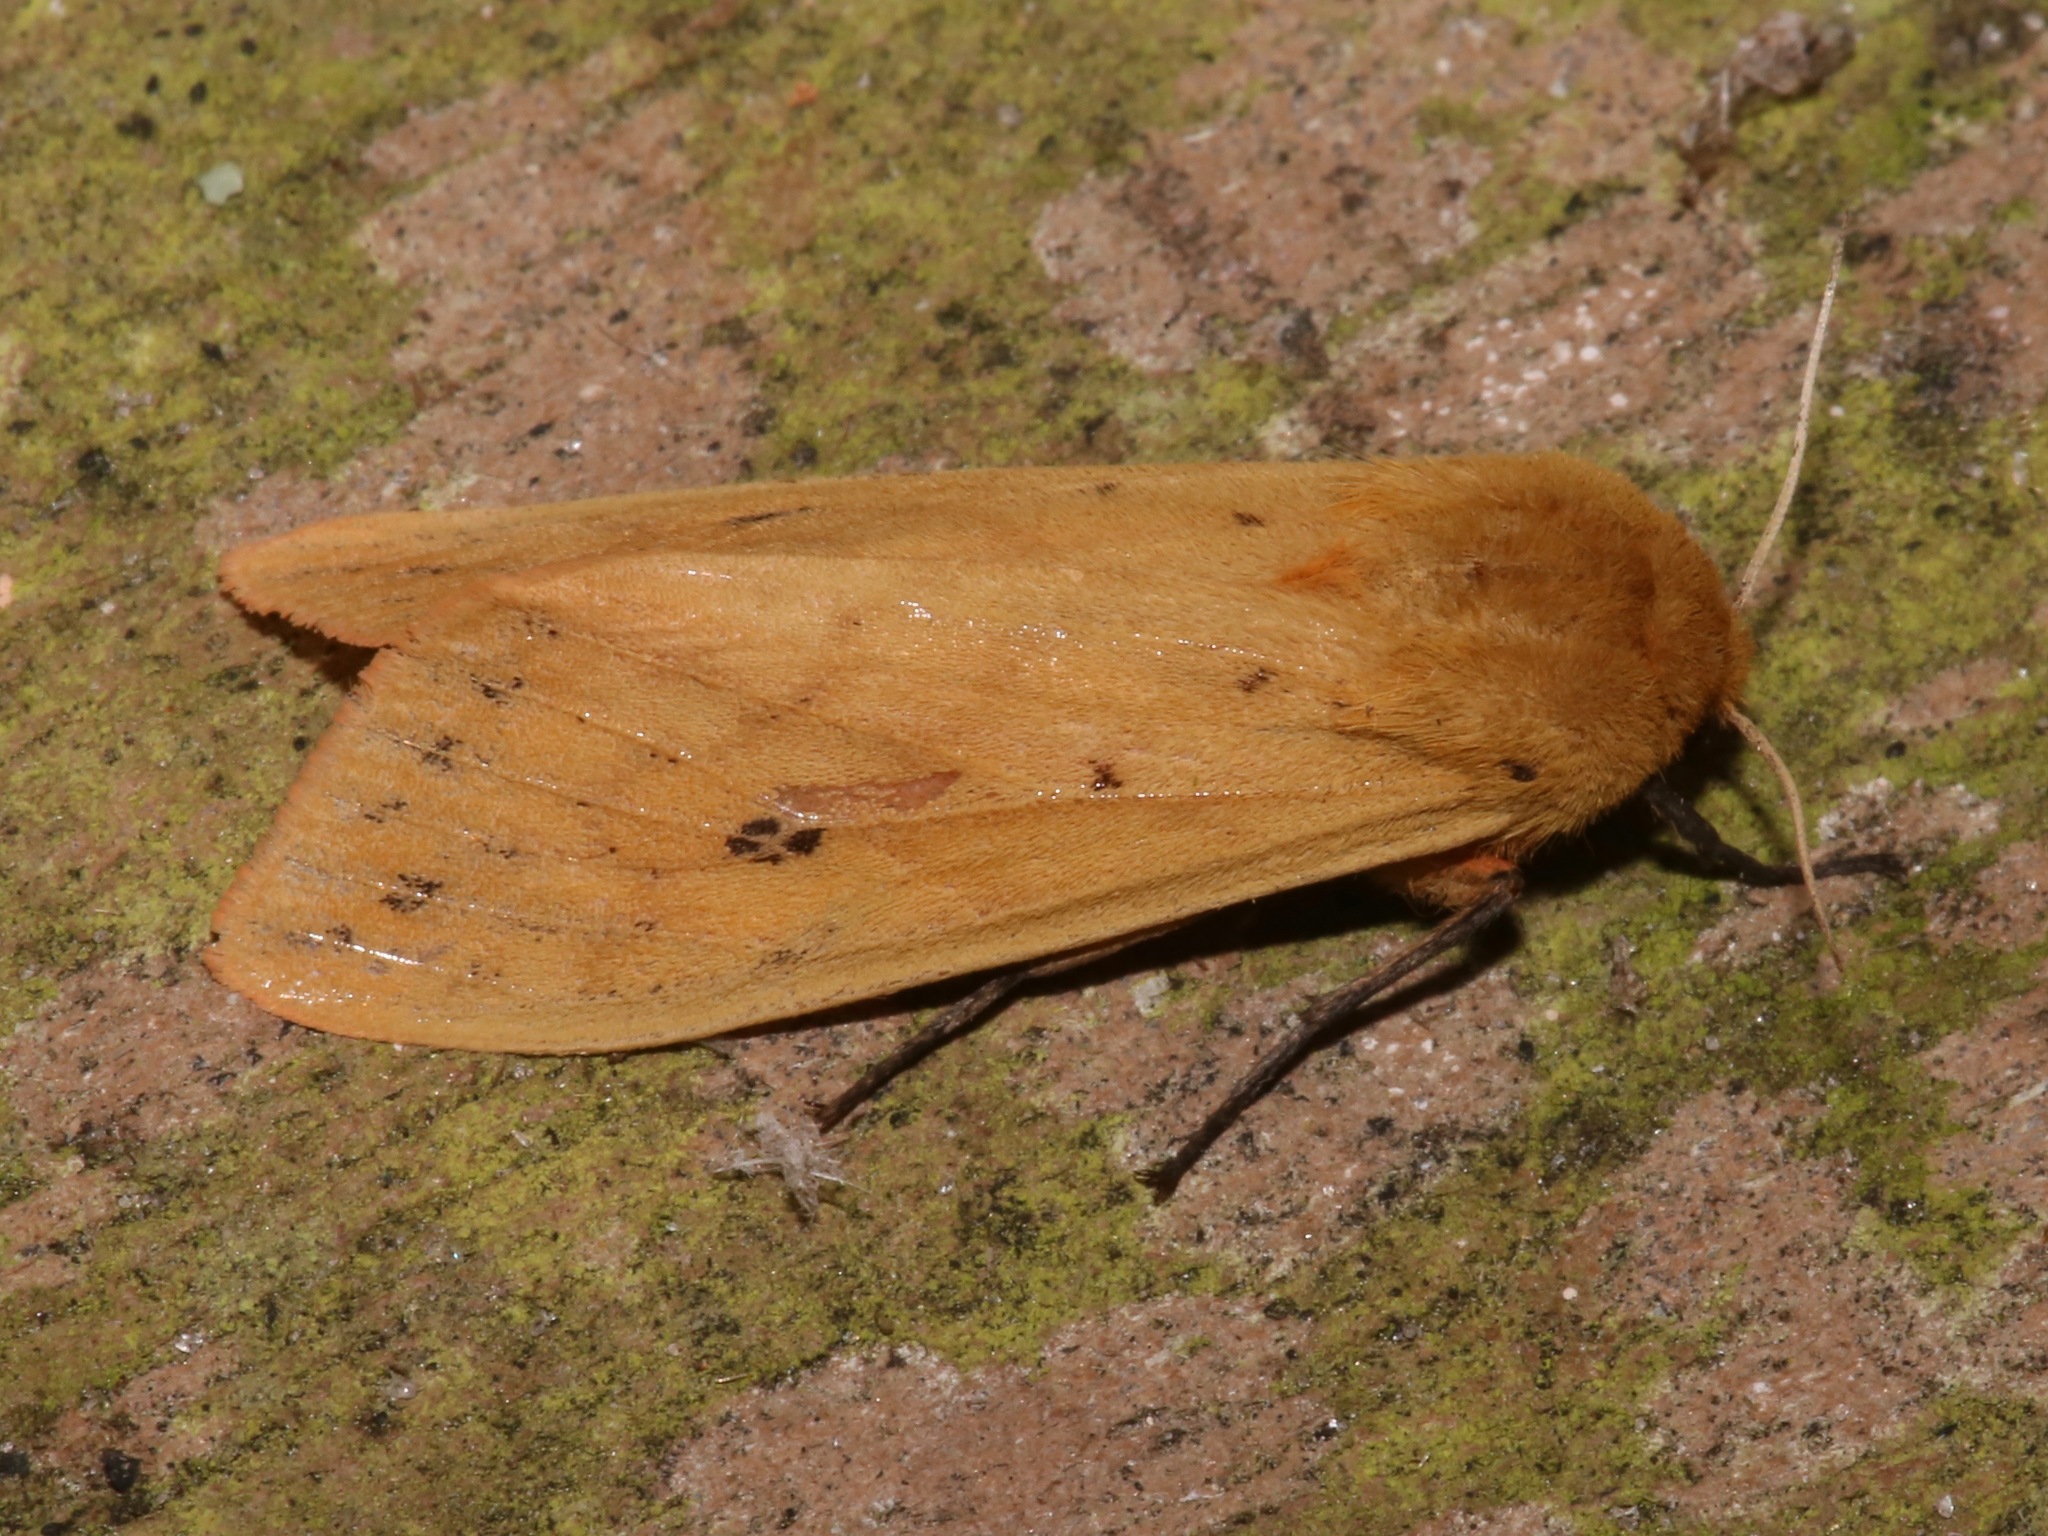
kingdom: Animalia
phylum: Arthropoda
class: Insecta
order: Lepidoptera
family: Erebidae
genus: Pyrrharctia
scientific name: Pyrrharctia isabella
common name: Isabella tiger moth
